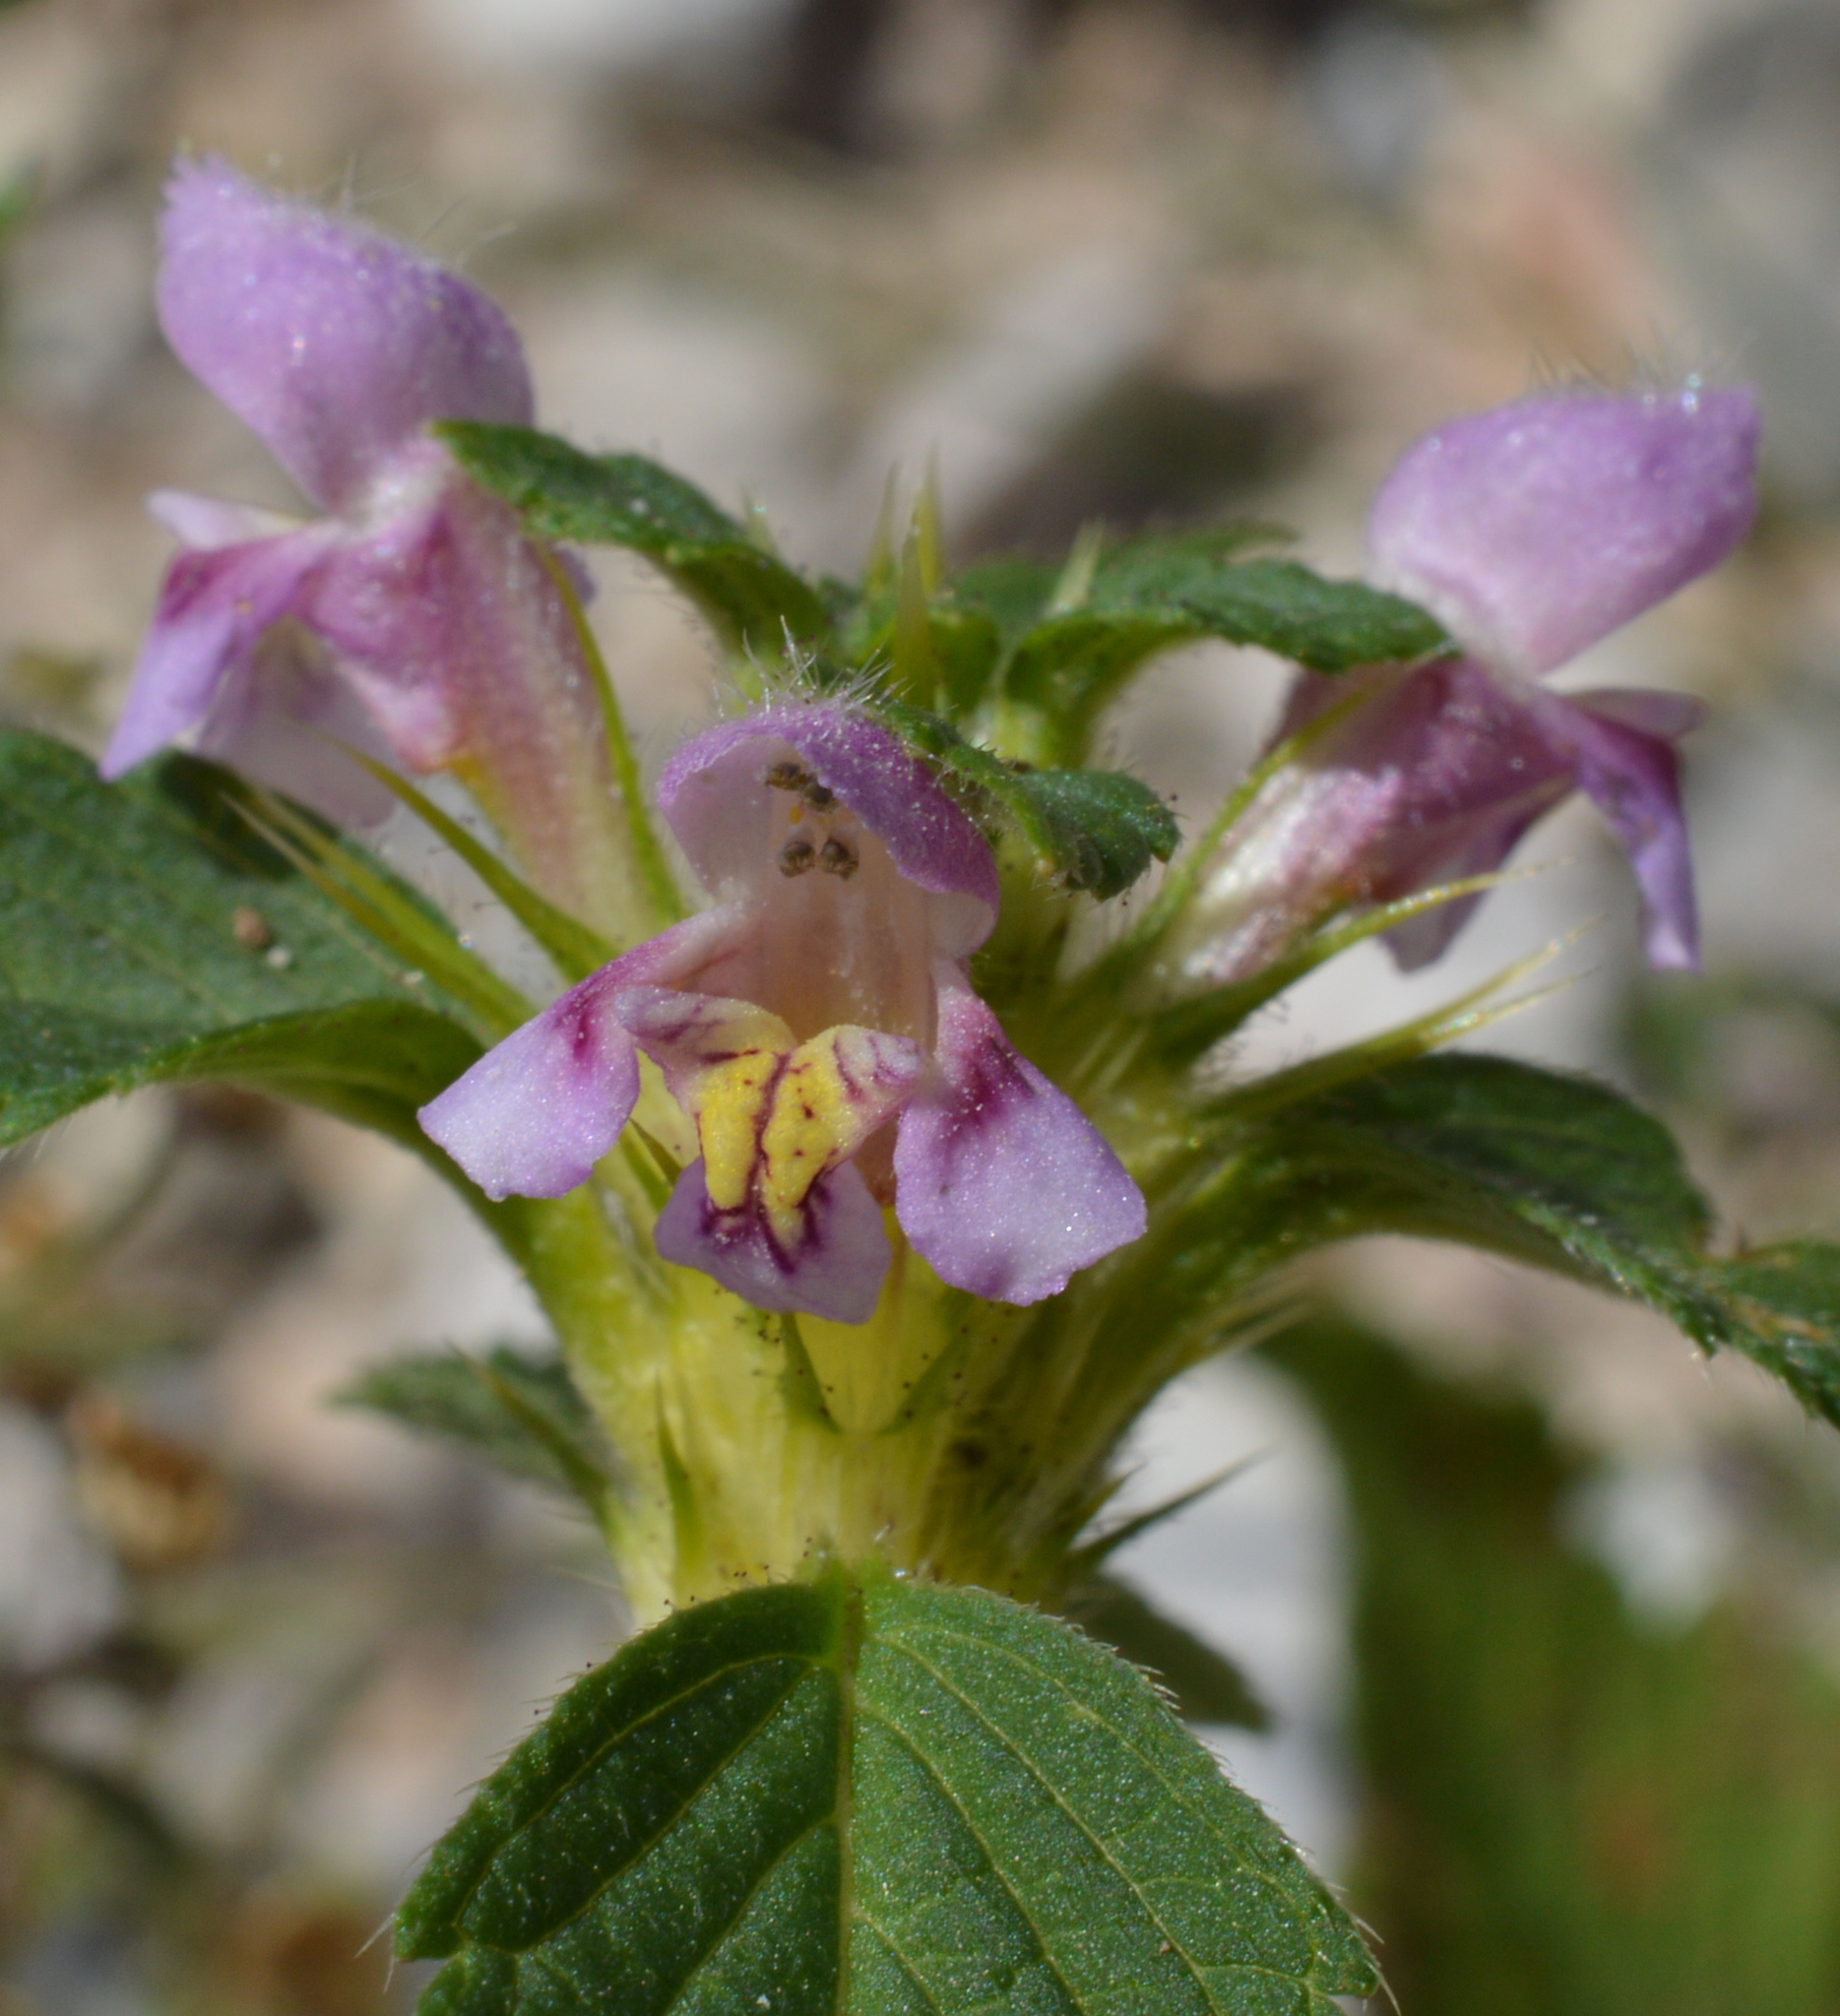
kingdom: Plantae
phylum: Tracheophyta
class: Magnoliopsida
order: Lamiales
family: Lamiaceae
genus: Galeopsis
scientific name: Galeopsis tetrahit
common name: Common hemp-nettle
